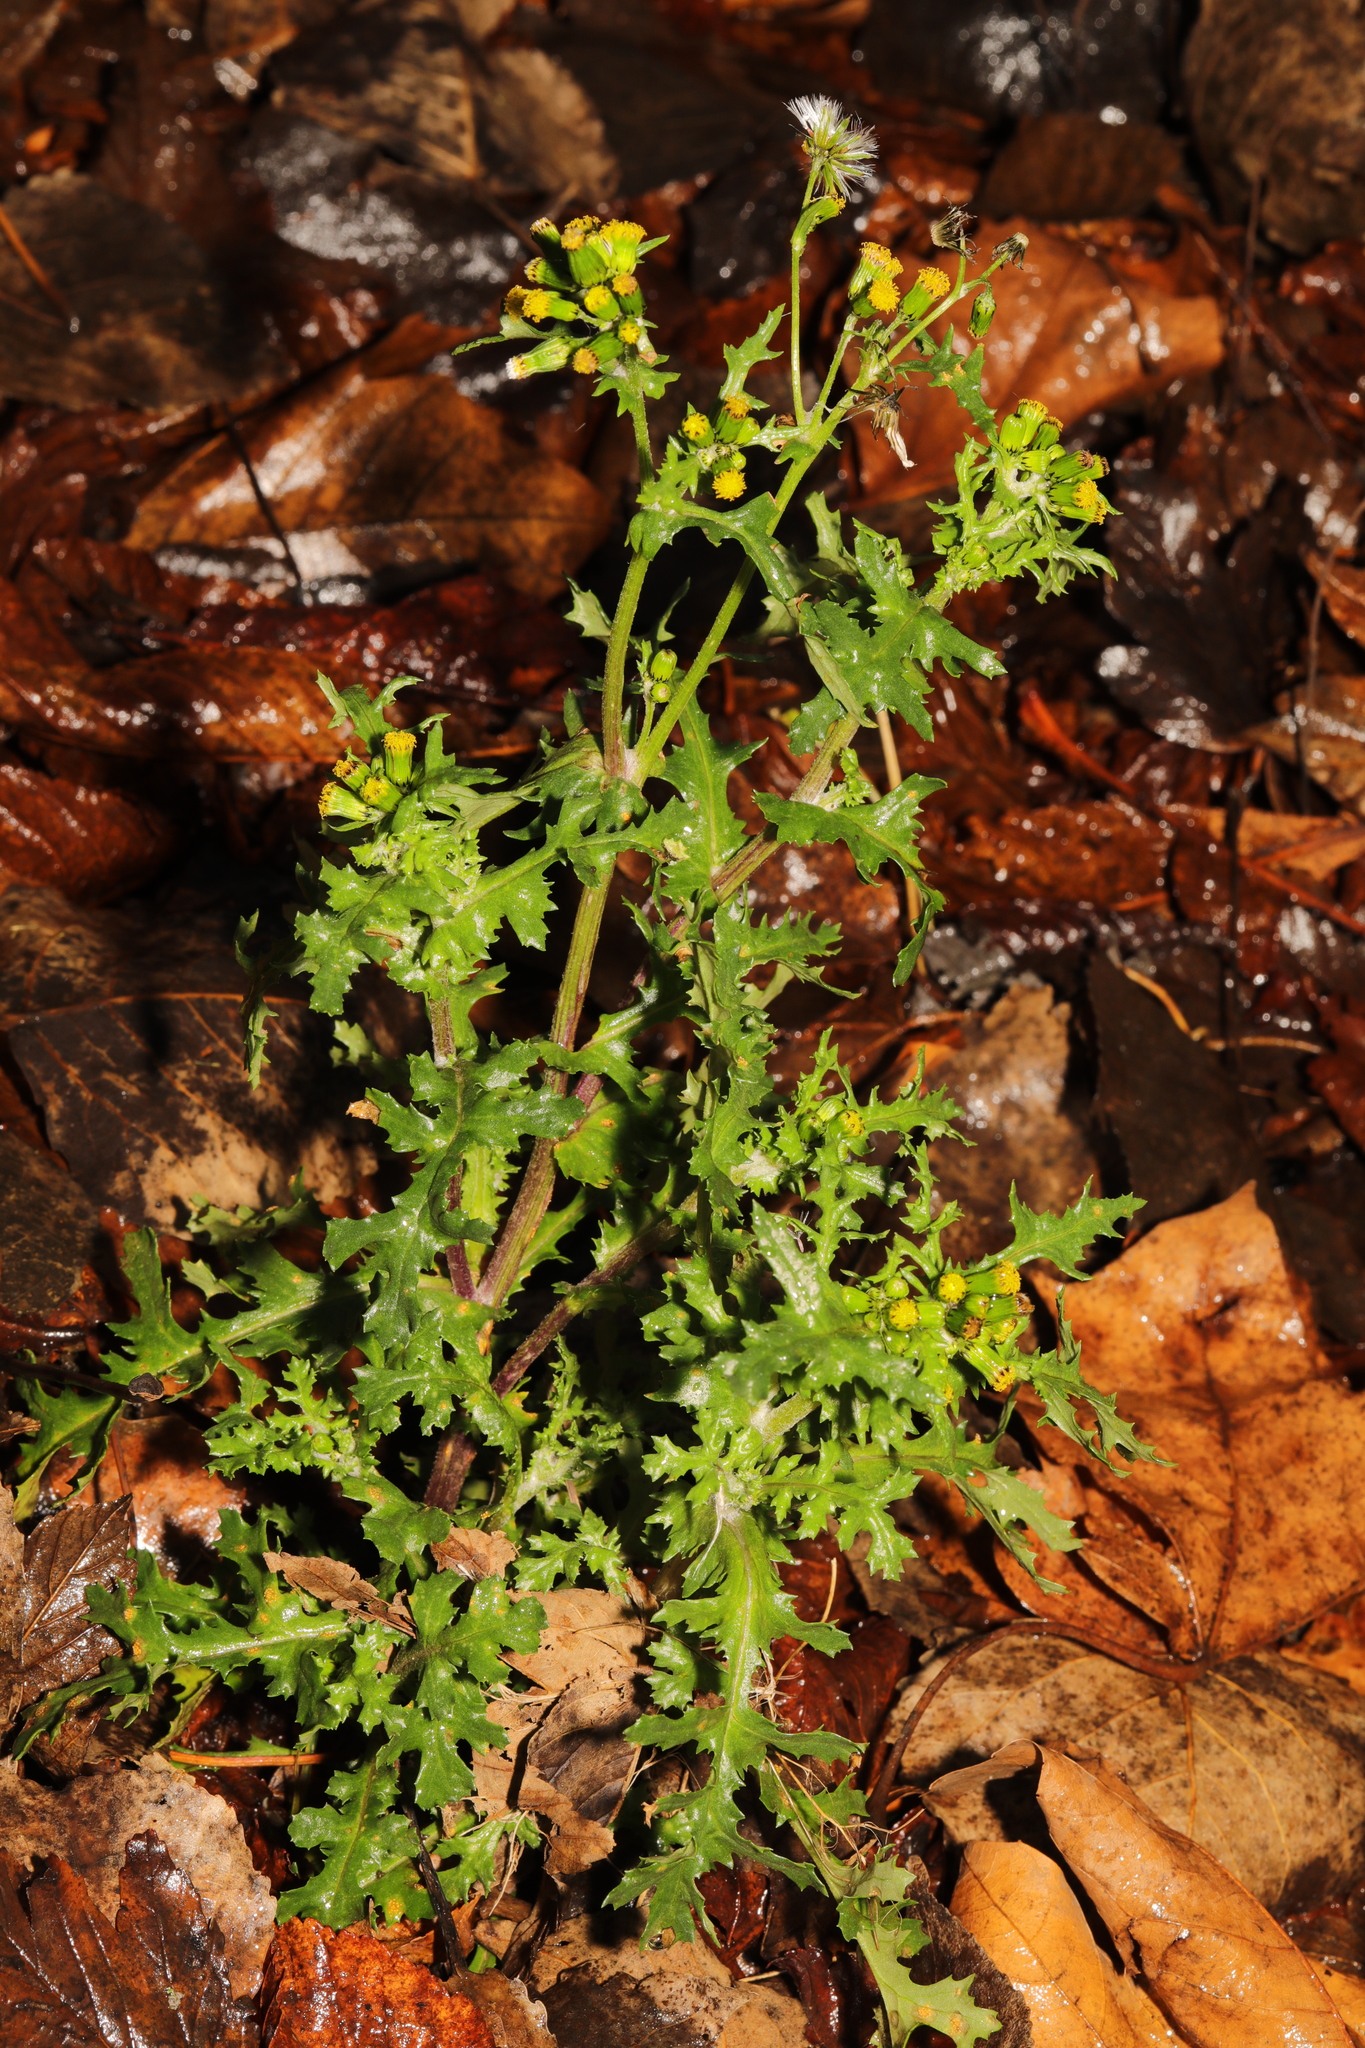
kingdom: Plantae
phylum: Tracheophyta
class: Magnoliopsida
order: Asterales
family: Asteraceae
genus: Senecio
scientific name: Senecio vulgaris
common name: Old-man-in-the-spring
